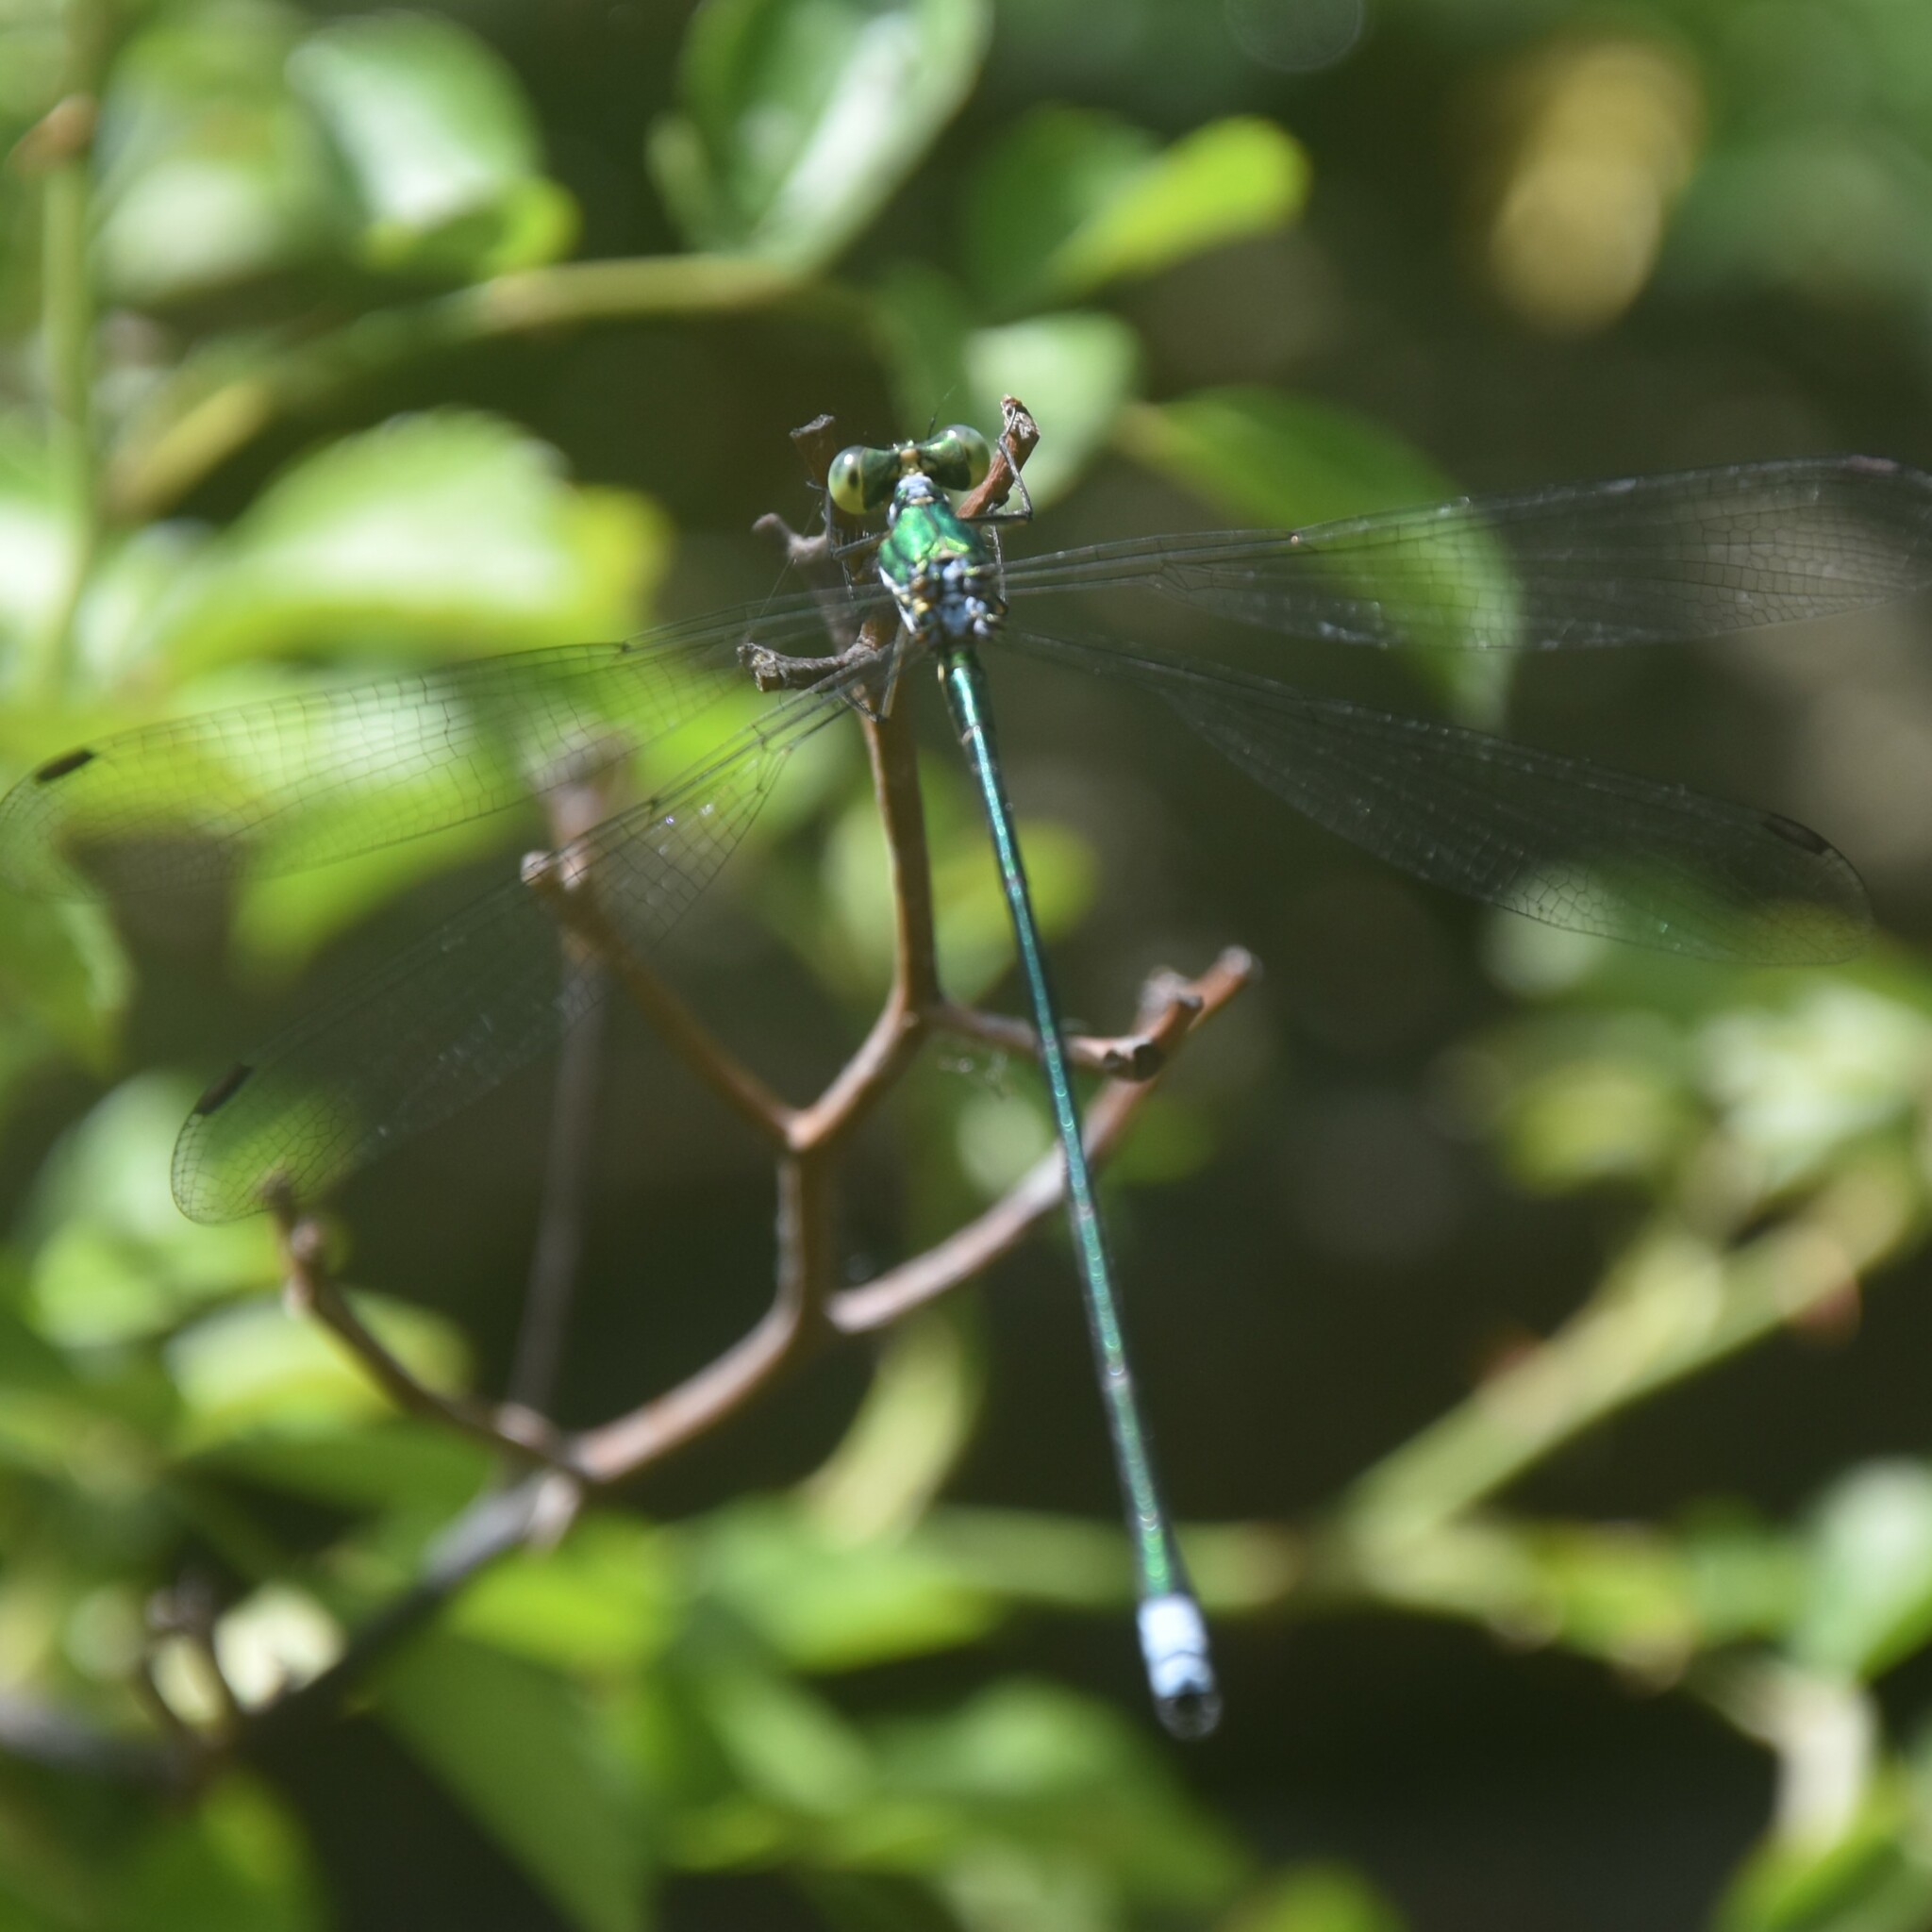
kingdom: Animalia
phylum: Arthropoda
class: Insecta
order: Odonata
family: Synlestidae
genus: Megalestes
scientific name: Megalestes major
